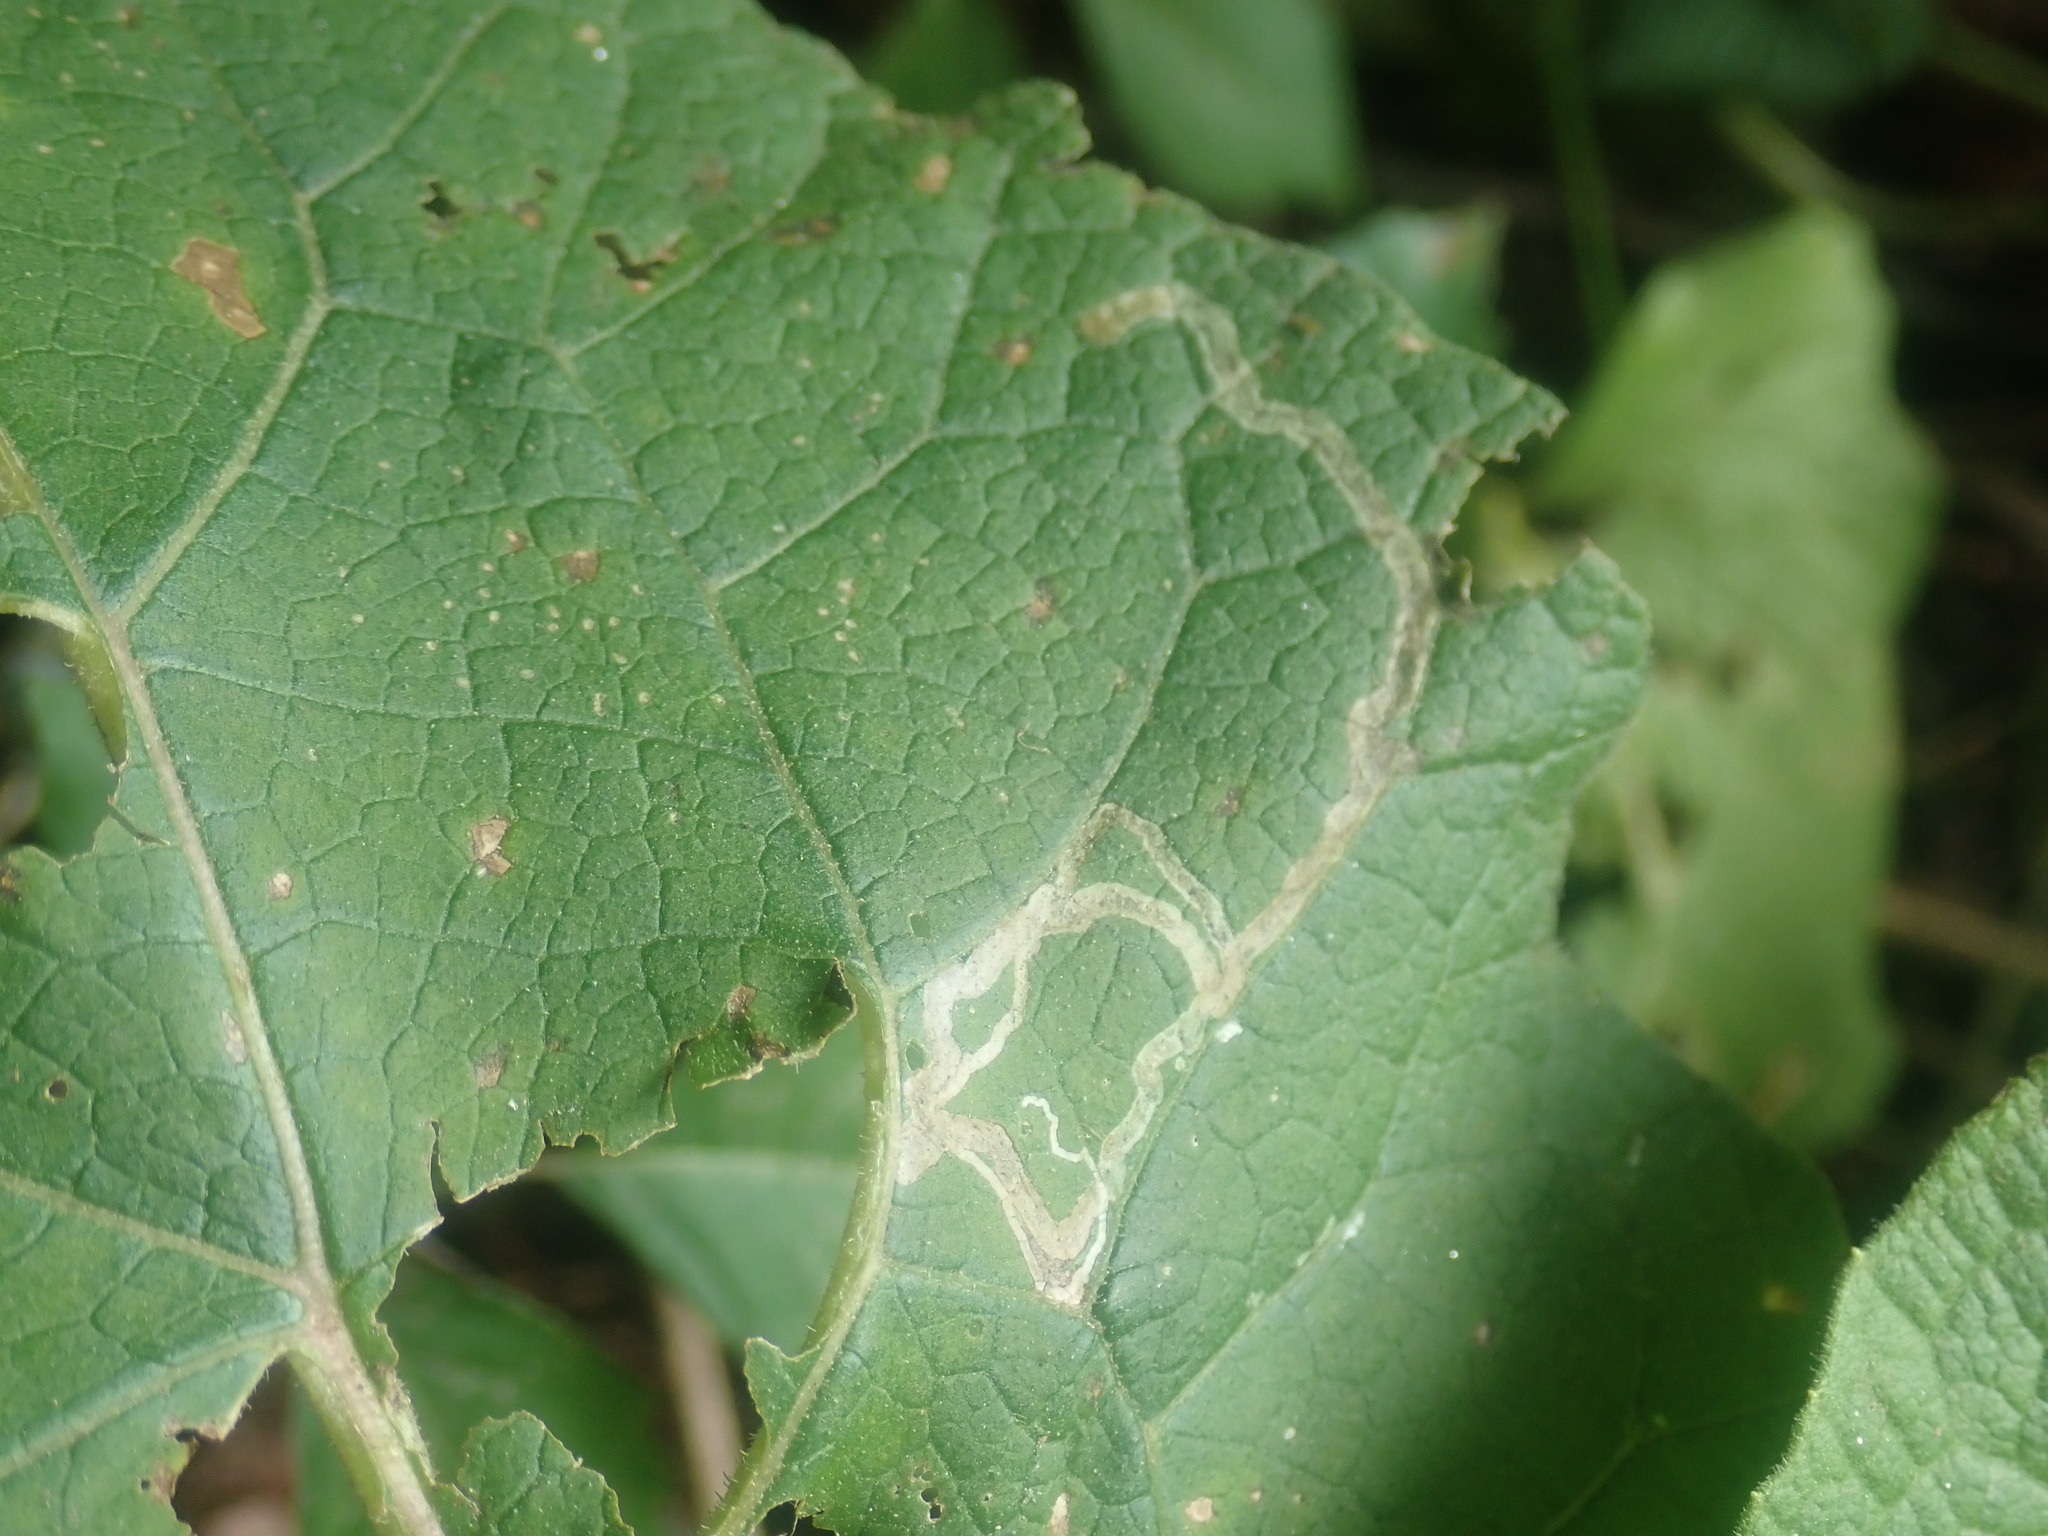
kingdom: Animalia
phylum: Arthropoda
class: Insecta
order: Diptera
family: Agromyzidae
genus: Liriomyza
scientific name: Liriomyza arctii
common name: Burdock leafminer
